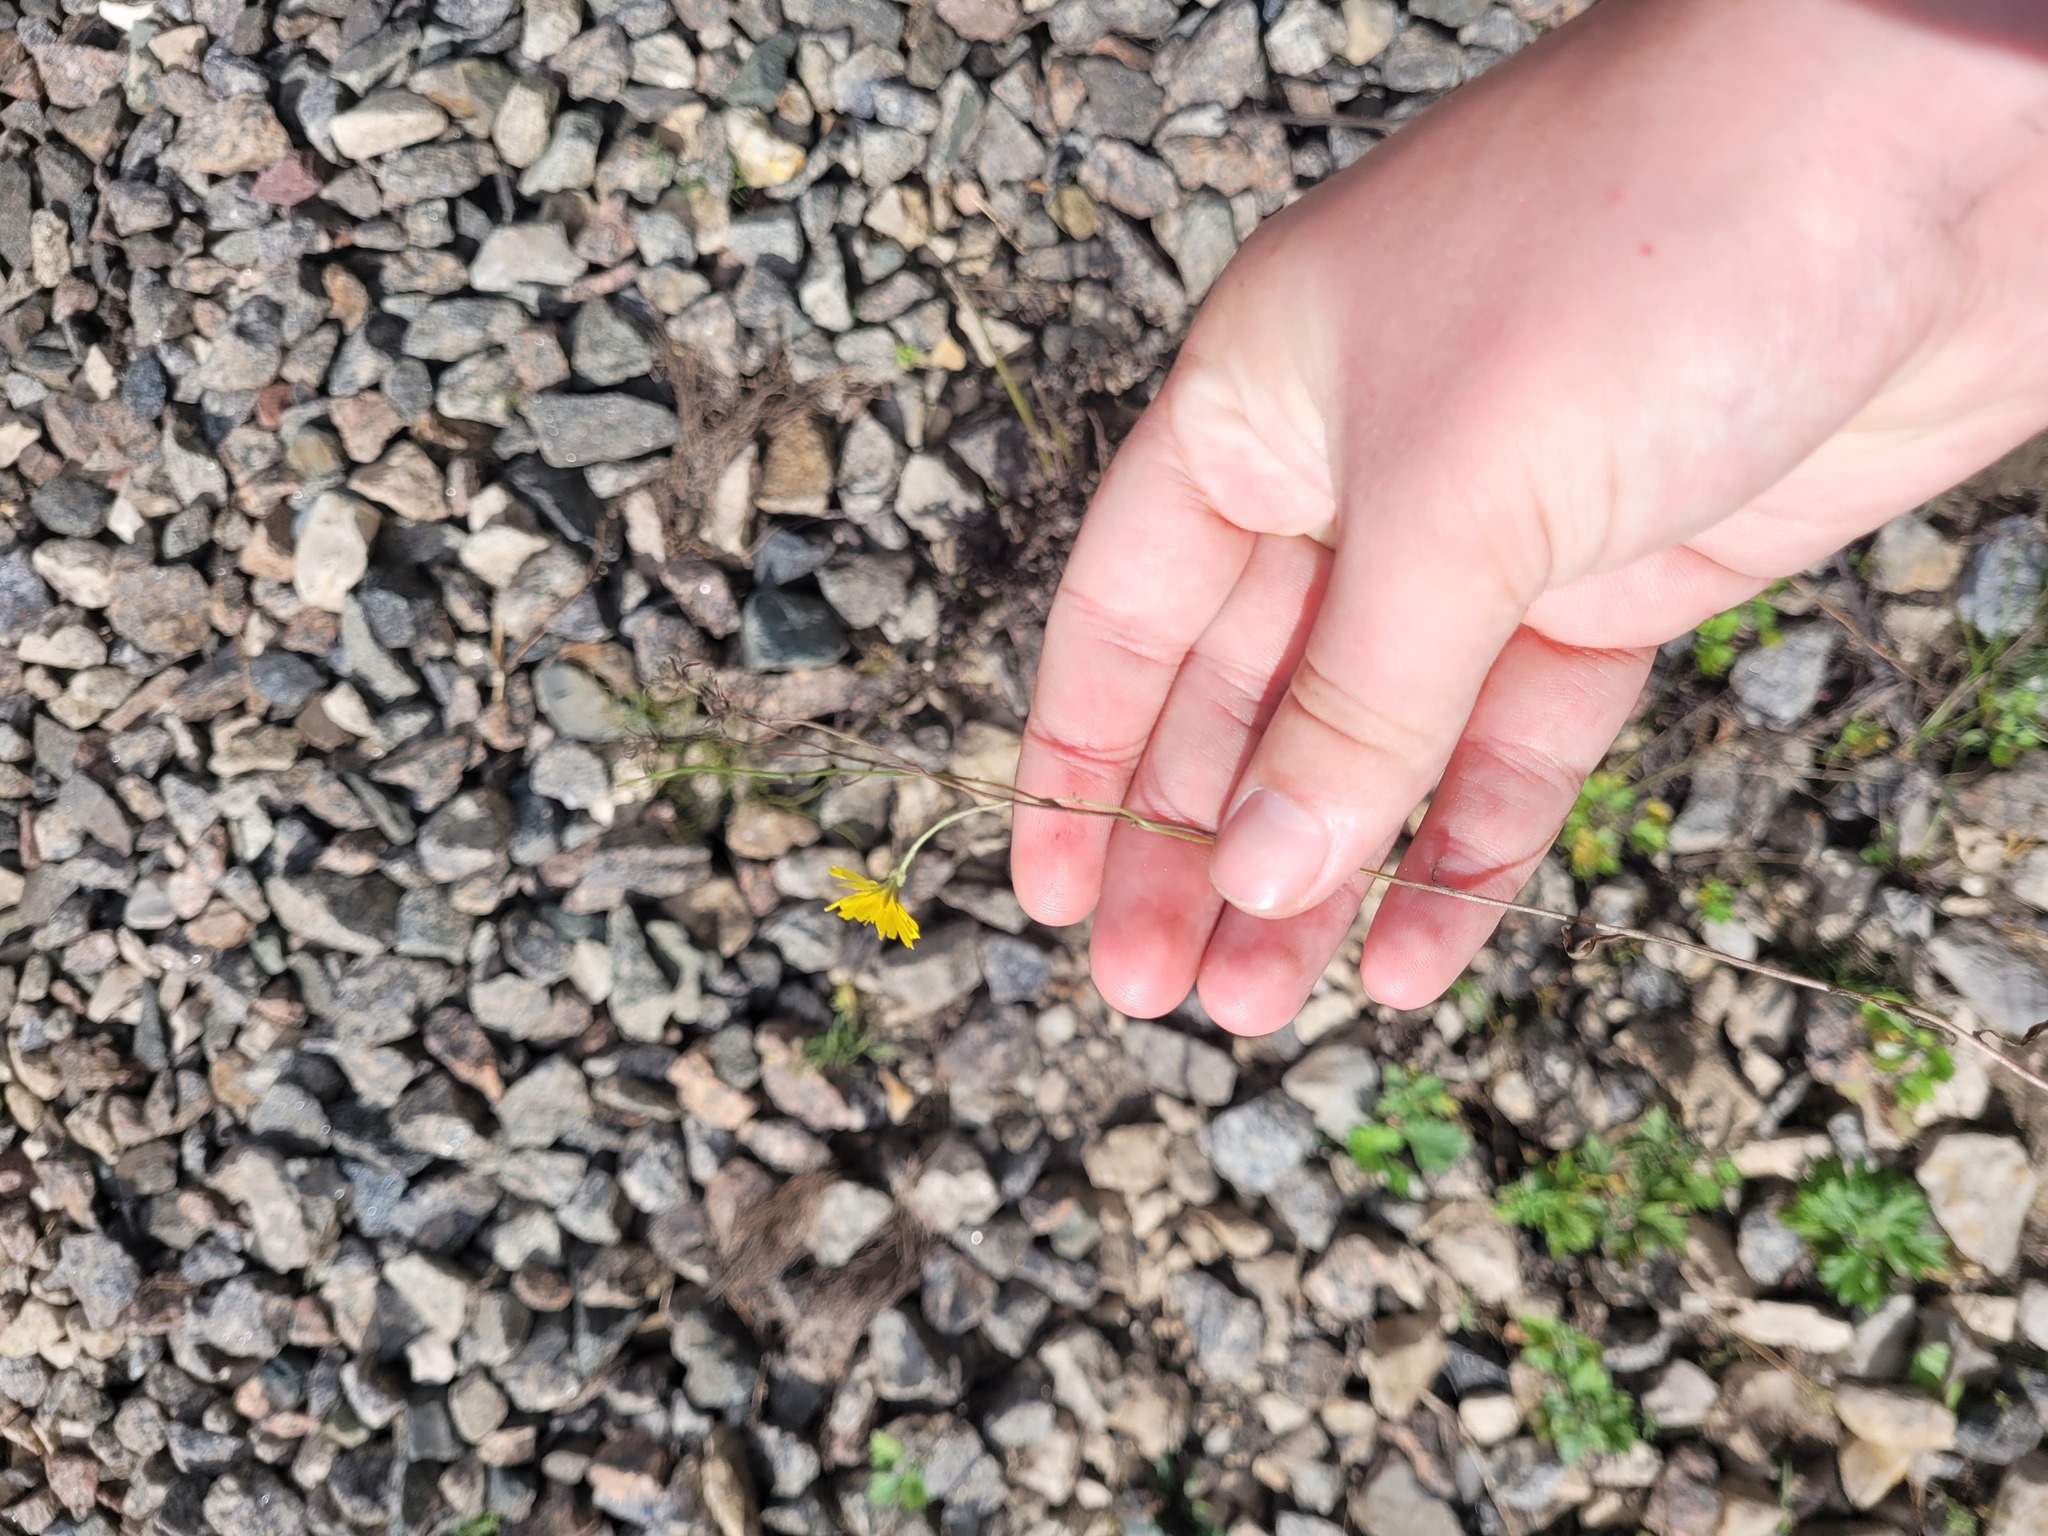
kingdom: Plantae
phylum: Tracheophyta
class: Magnoliopsida
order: Asterales
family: Asteraceae
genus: Crepis
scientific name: Crepis tectorum
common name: Narrow-leaved hawk's-beard
